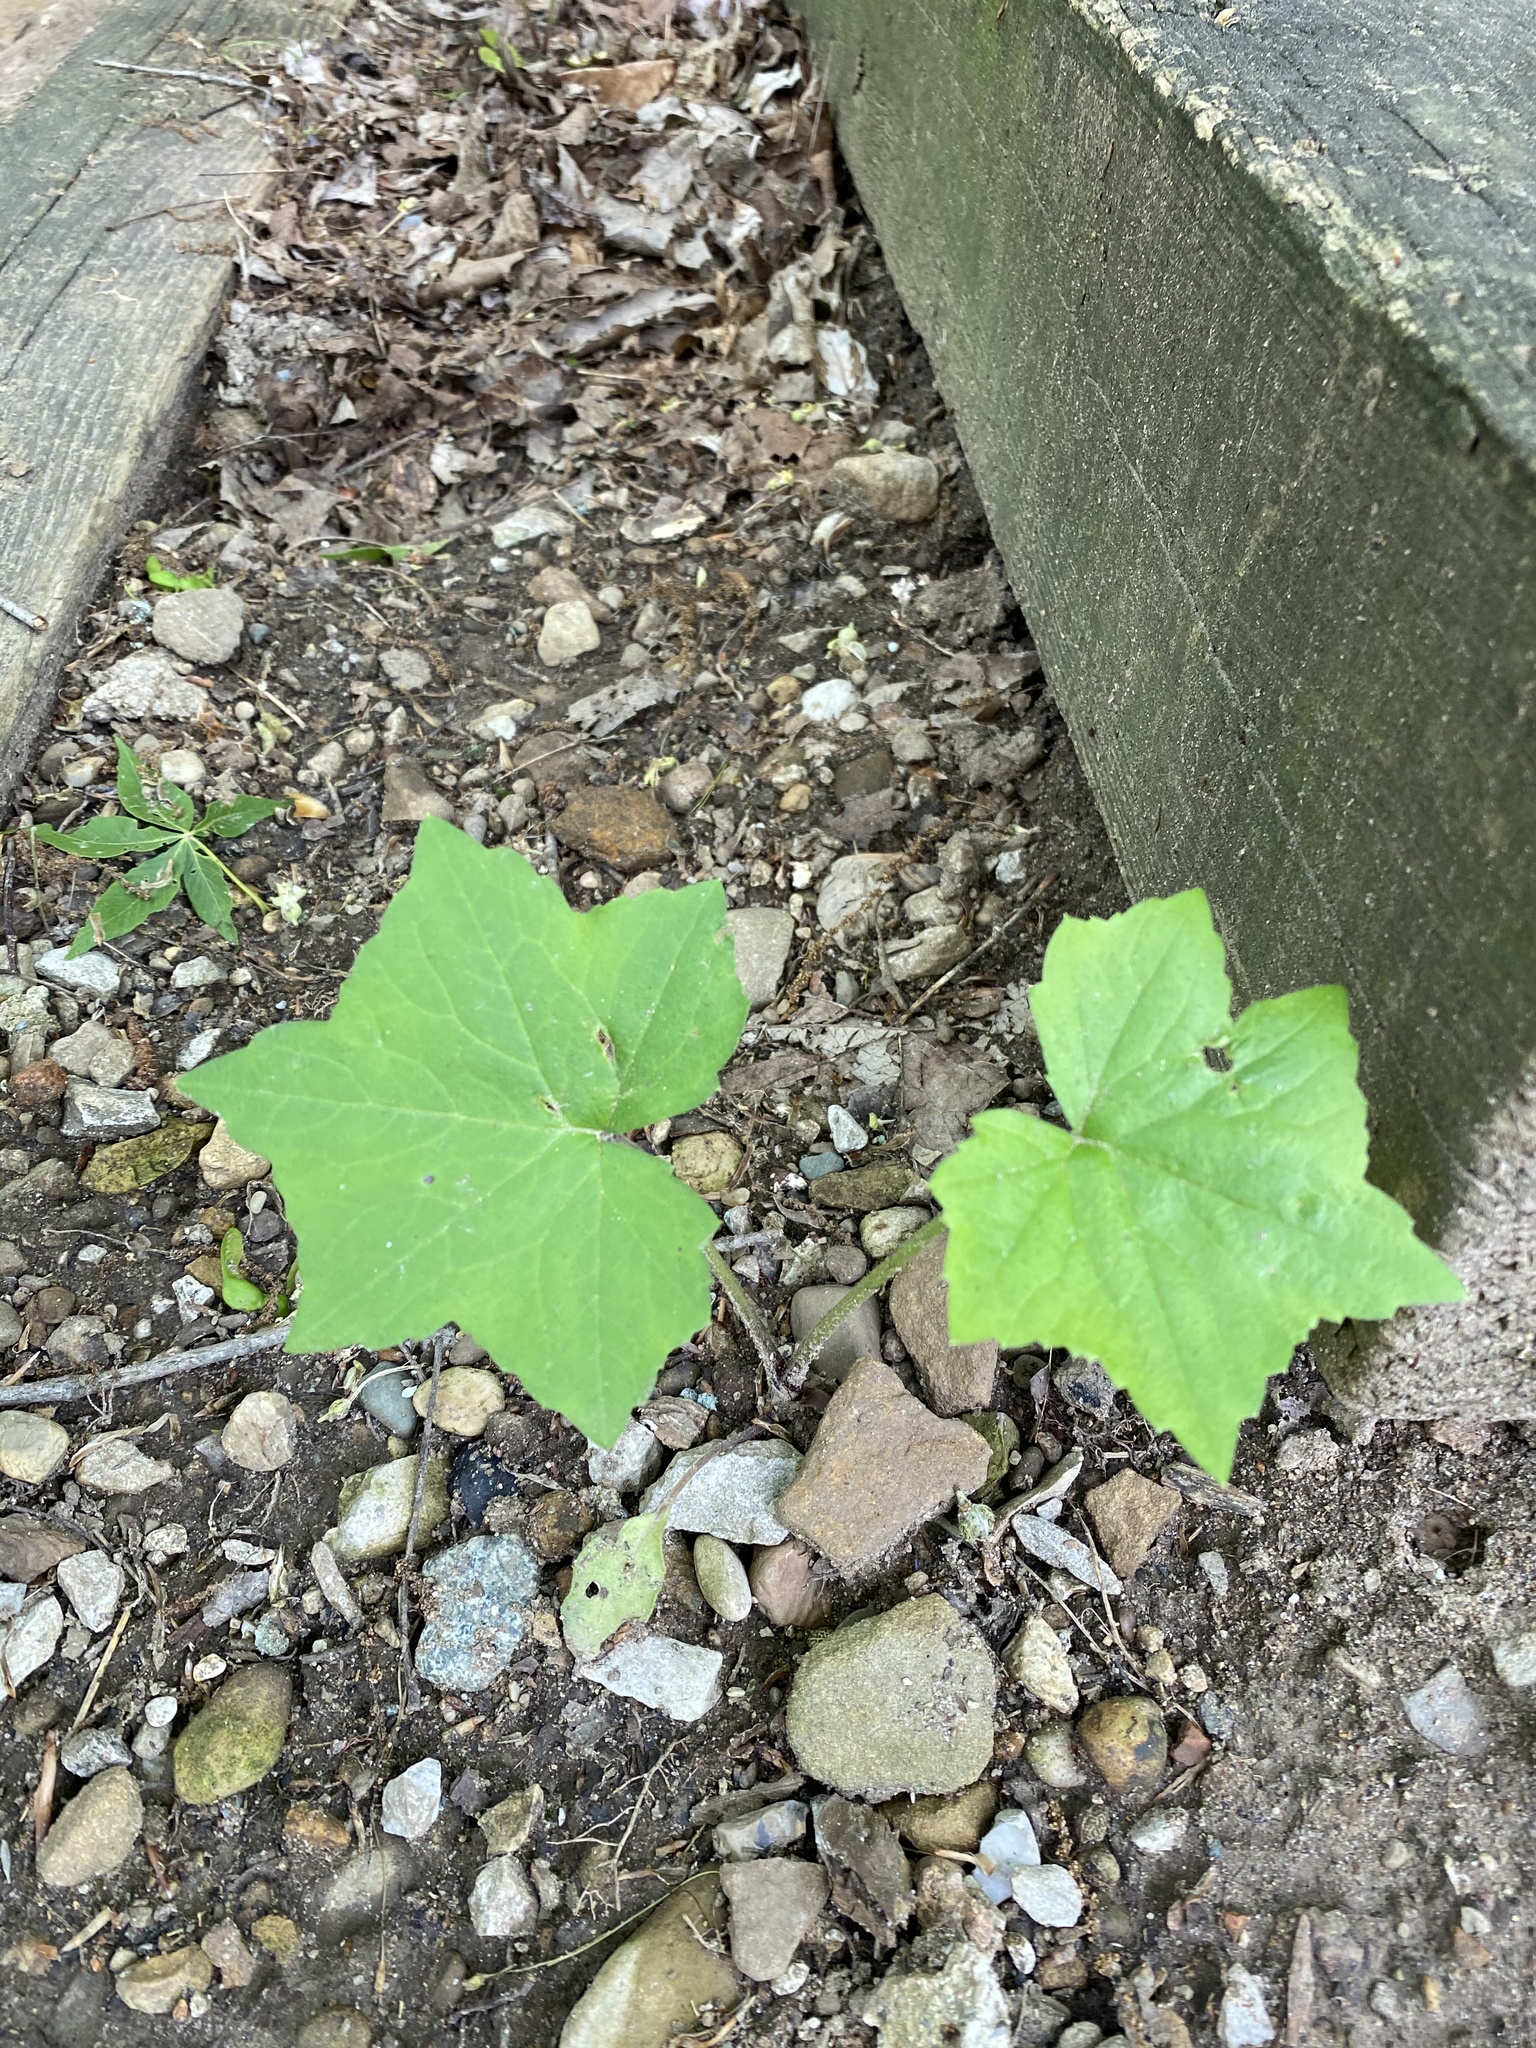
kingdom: Plantae
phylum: Tracheophyta
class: Magnoliopsida
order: Saxifragales
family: Altingiaceae
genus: Liquidambar
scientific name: Liquidambar styraciflua
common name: Sweet gum
